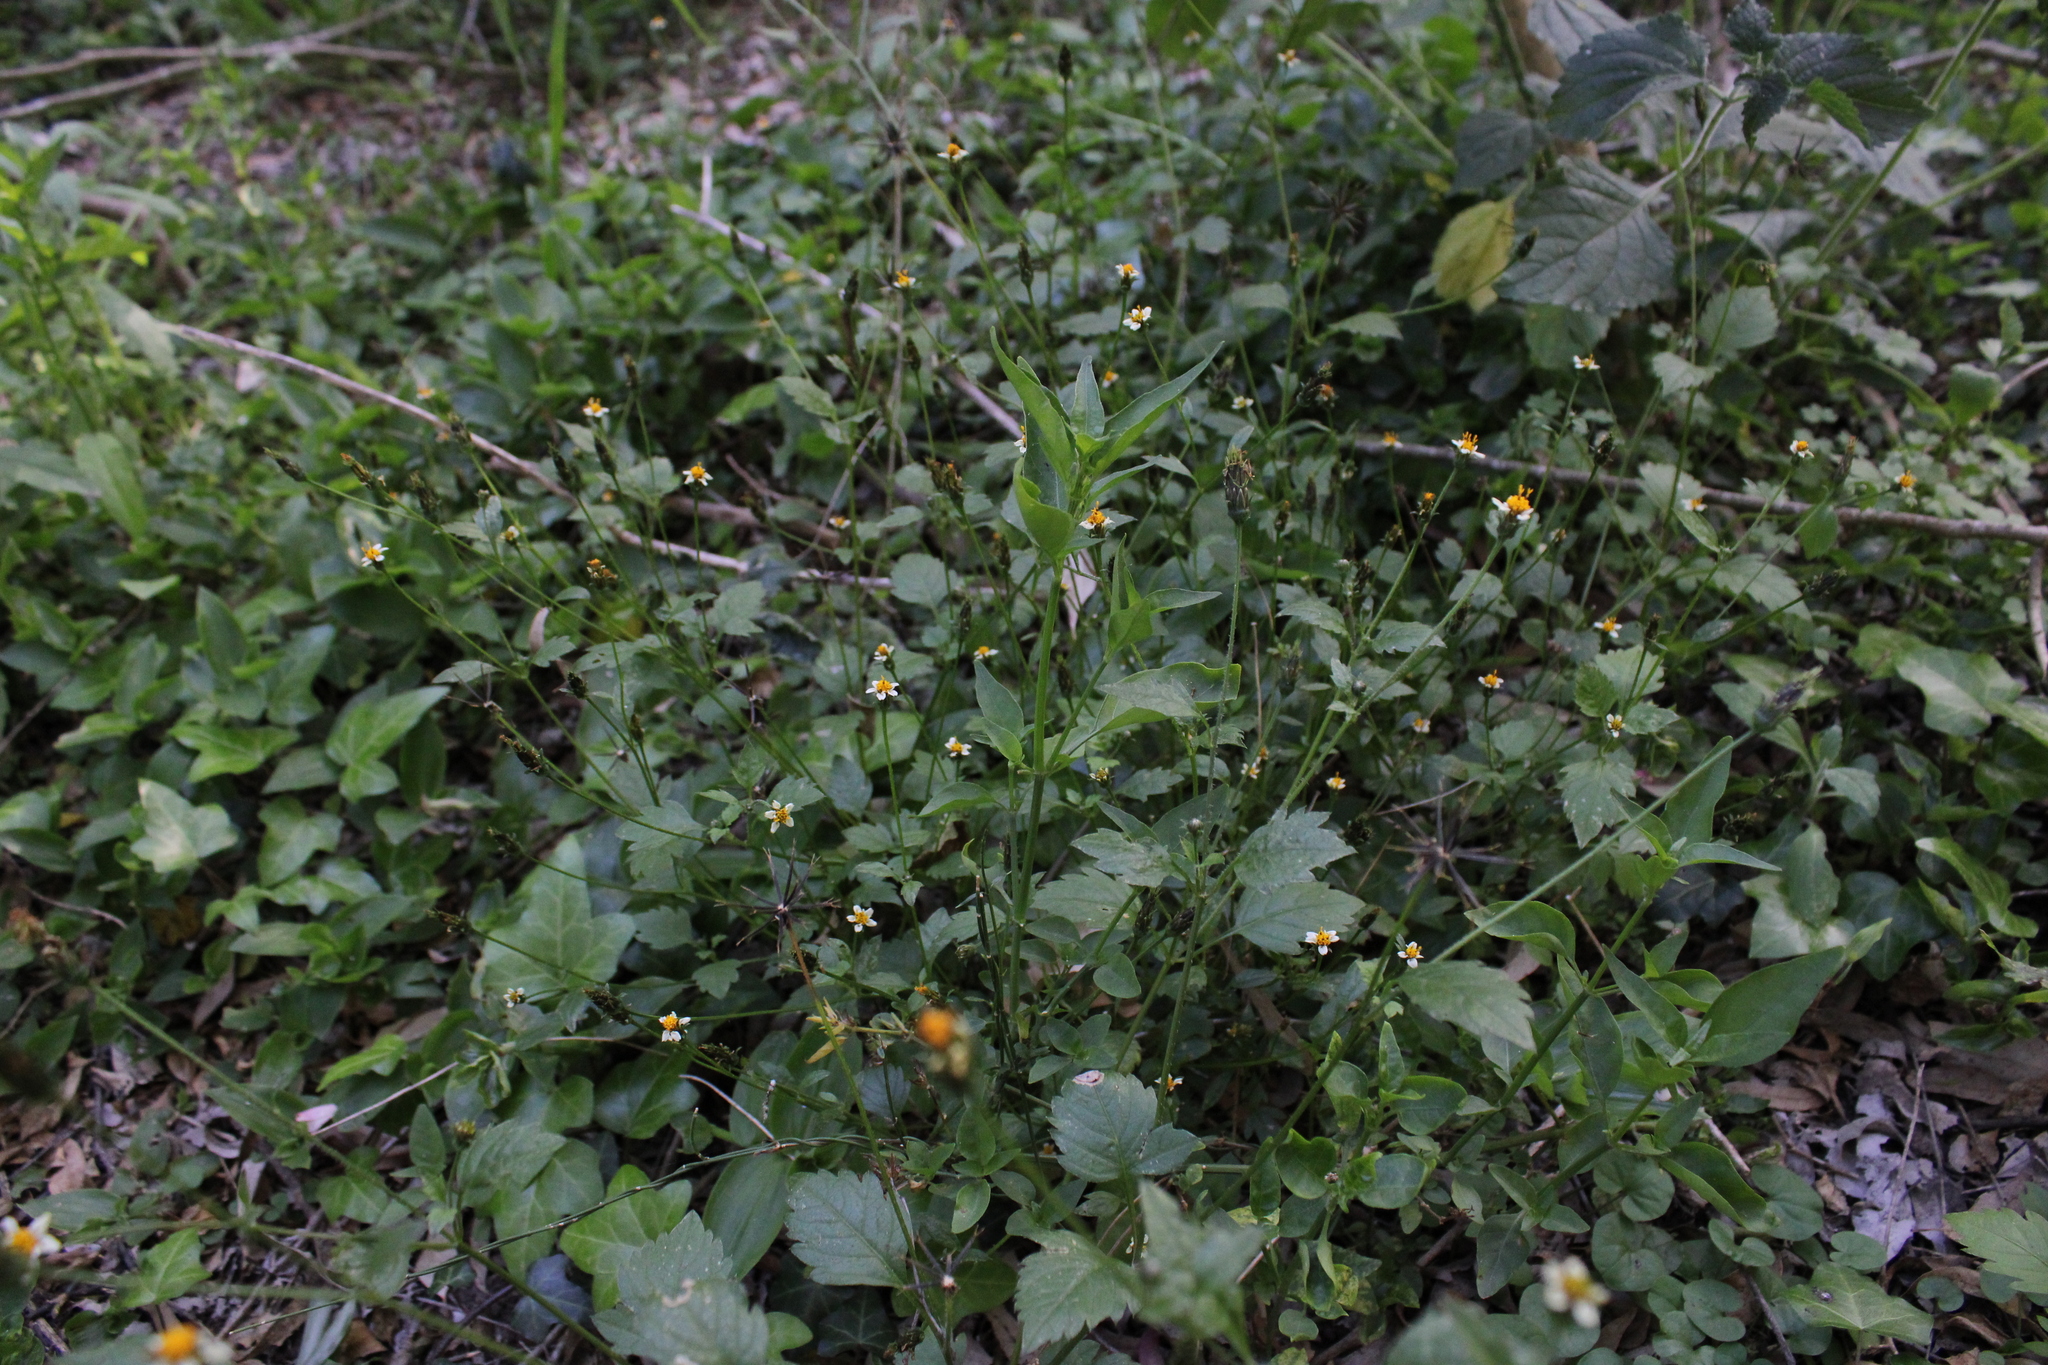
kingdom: Plantae
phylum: Tracheophyta
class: Magnoliopsida
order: Asterales
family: Asteraceae
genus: Bidens
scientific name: Bidens pilosa
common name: Black-jack
